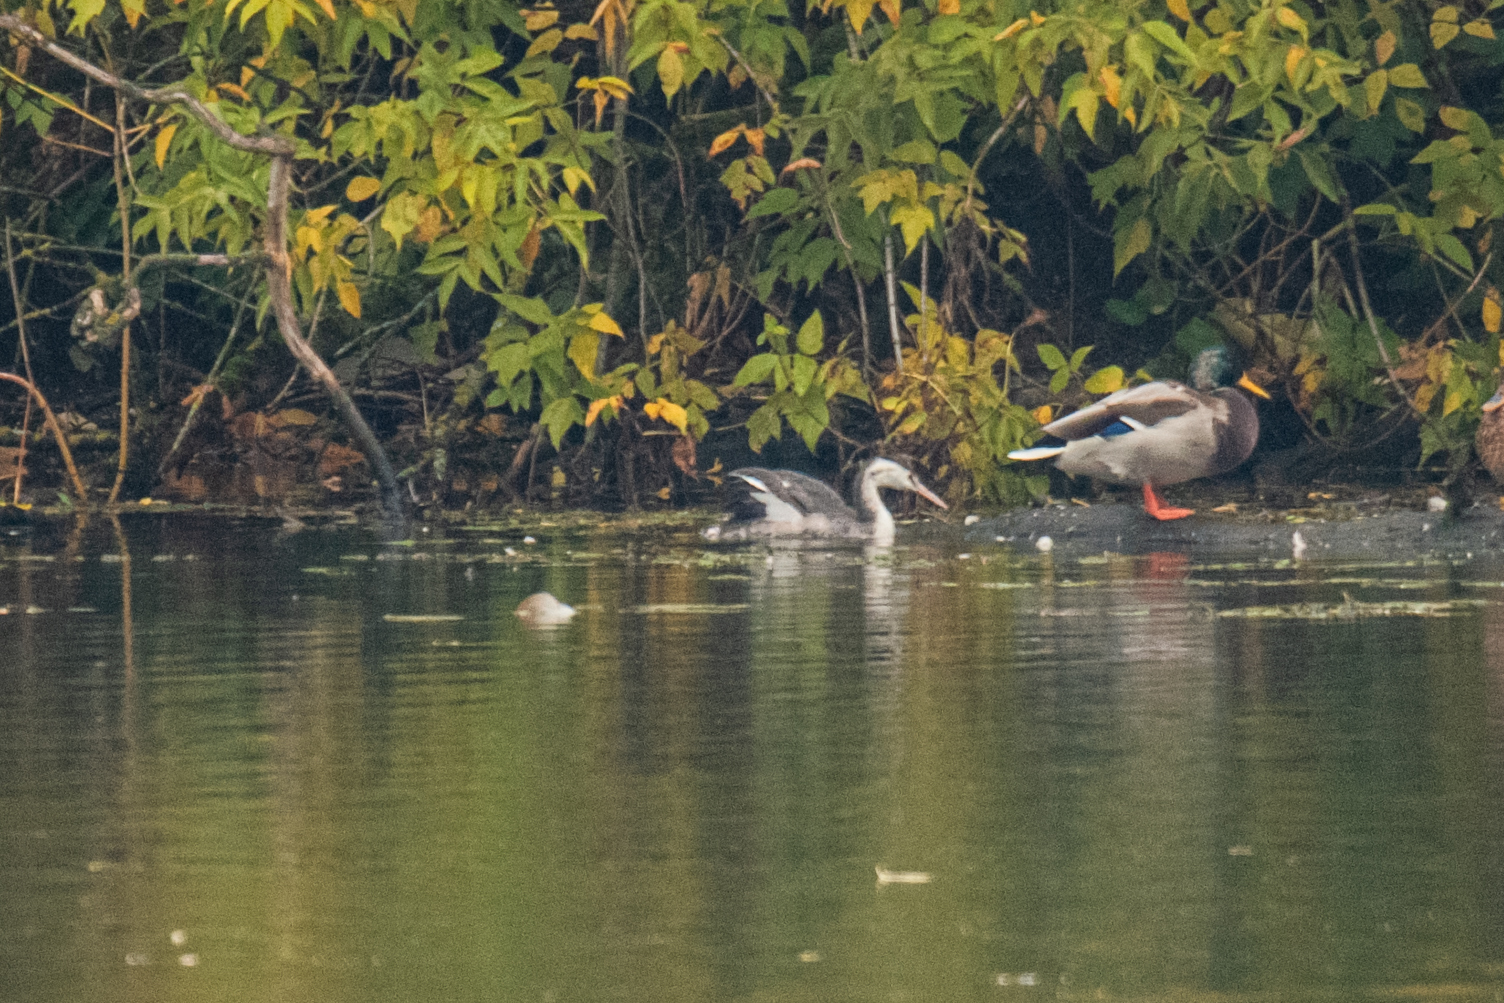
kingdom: Animalia
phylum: Chordata
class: Aves
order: Podicipediformes
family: Podicipedidae
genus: Podiceps
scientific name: Podiceps cristatus
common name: Great crested grebe
